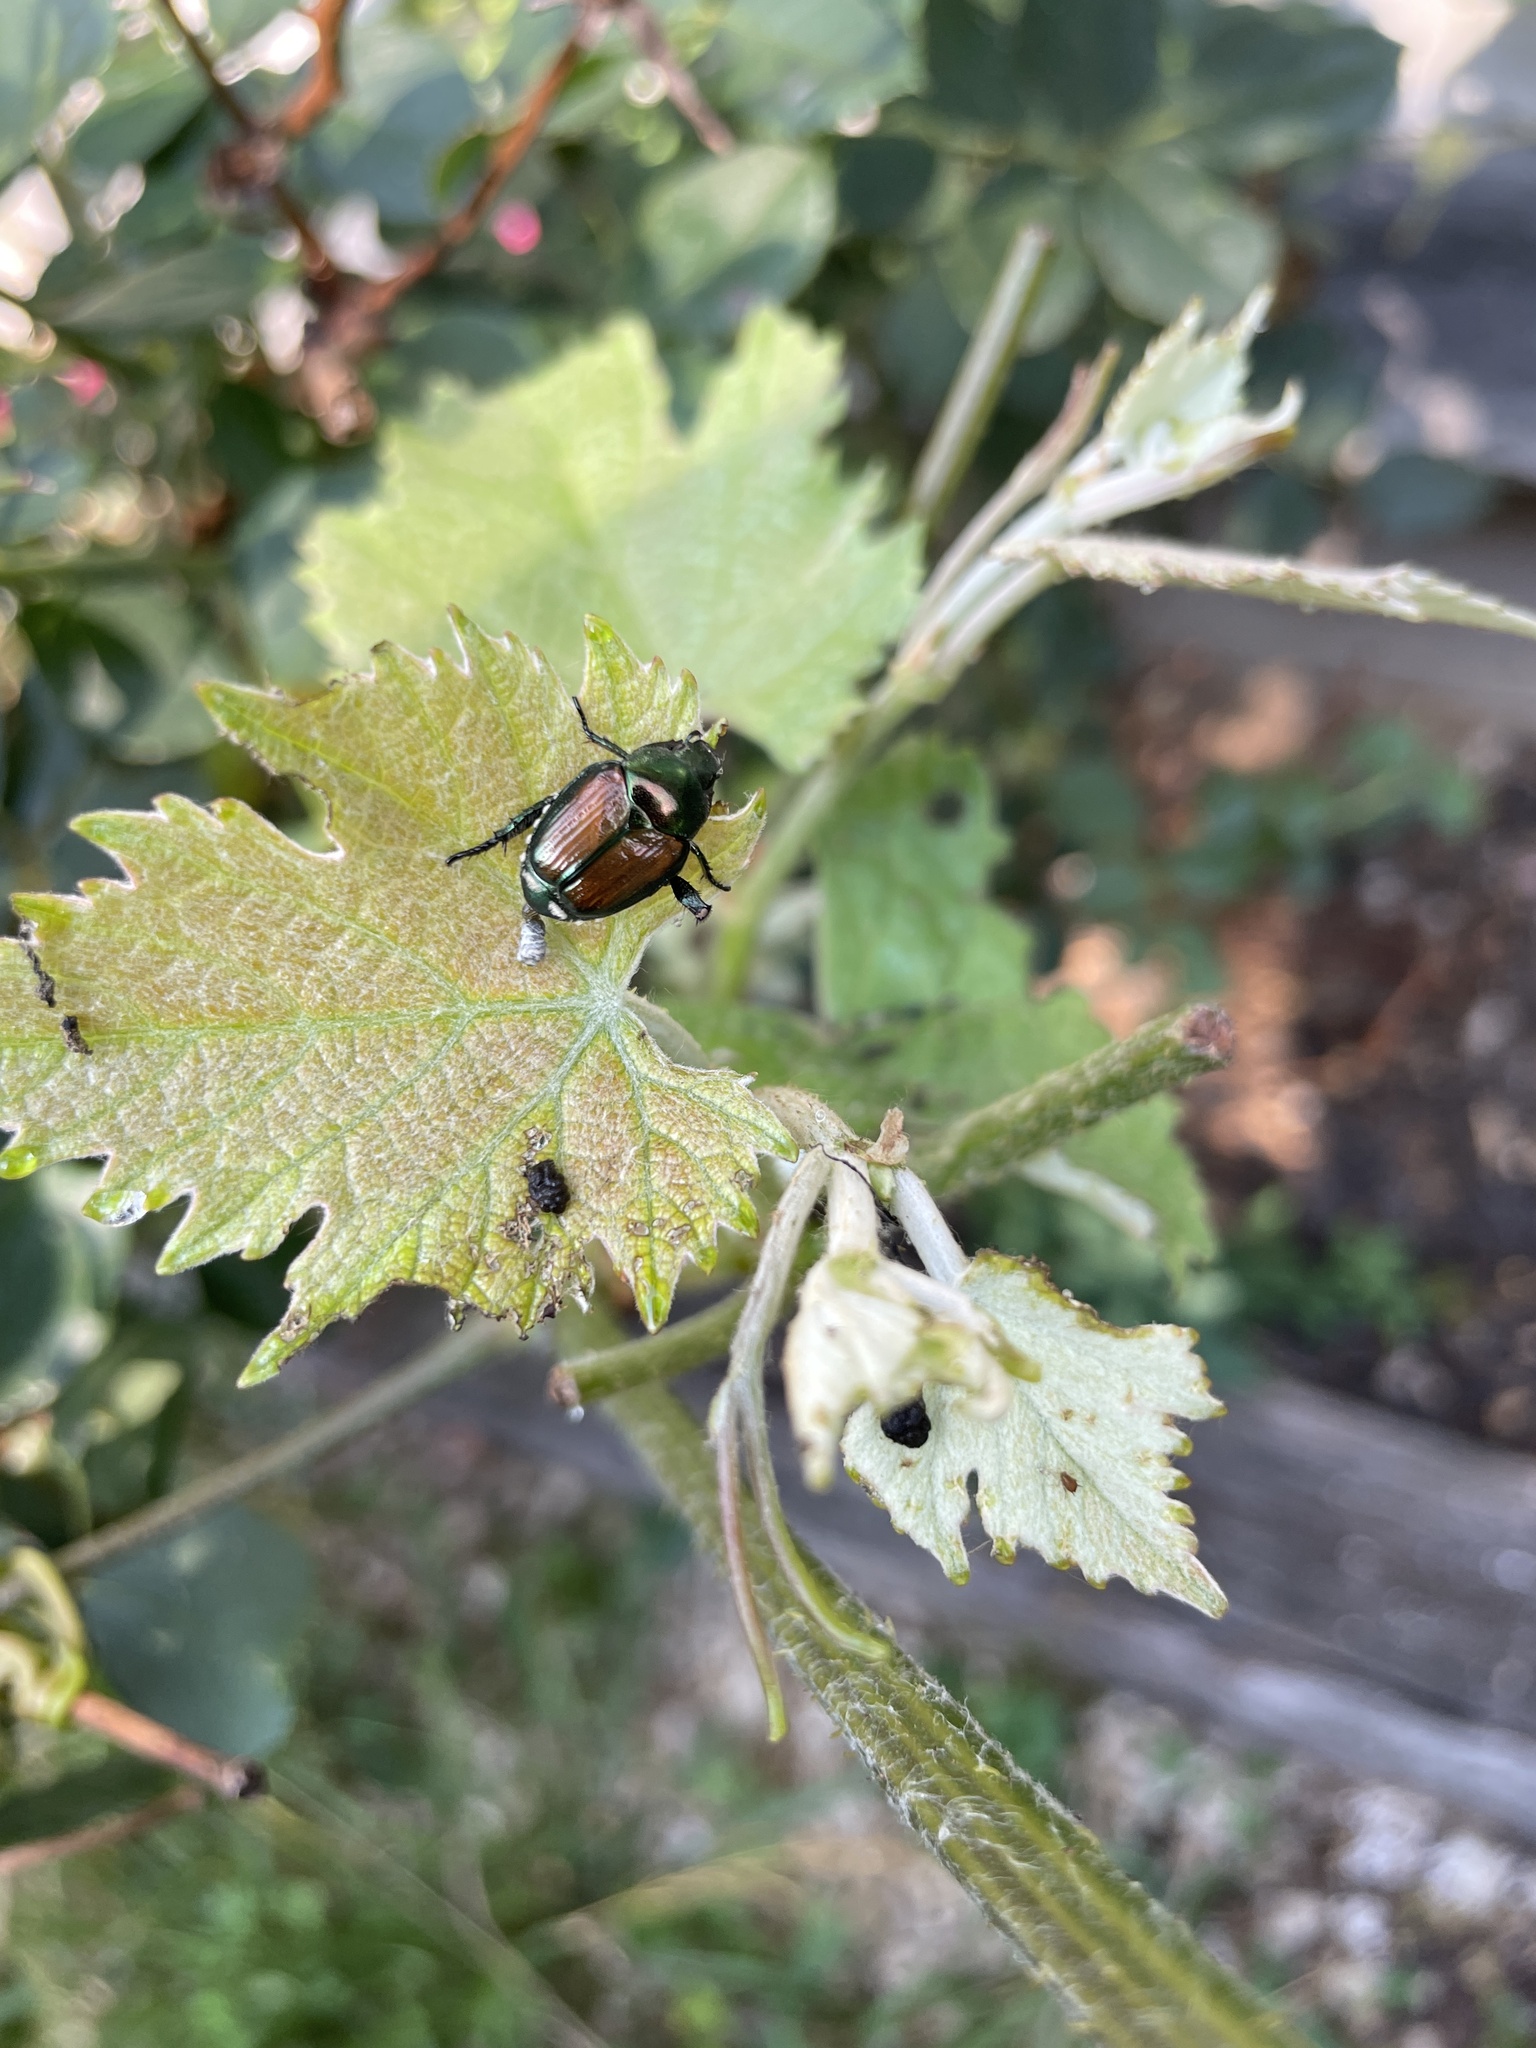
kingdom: Animalia
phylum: Arthropoda
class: Insecta
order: Coleoptera
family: Scarabaeidae
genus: Popillia
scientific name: Popillia japonica
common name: Japanese beetle
